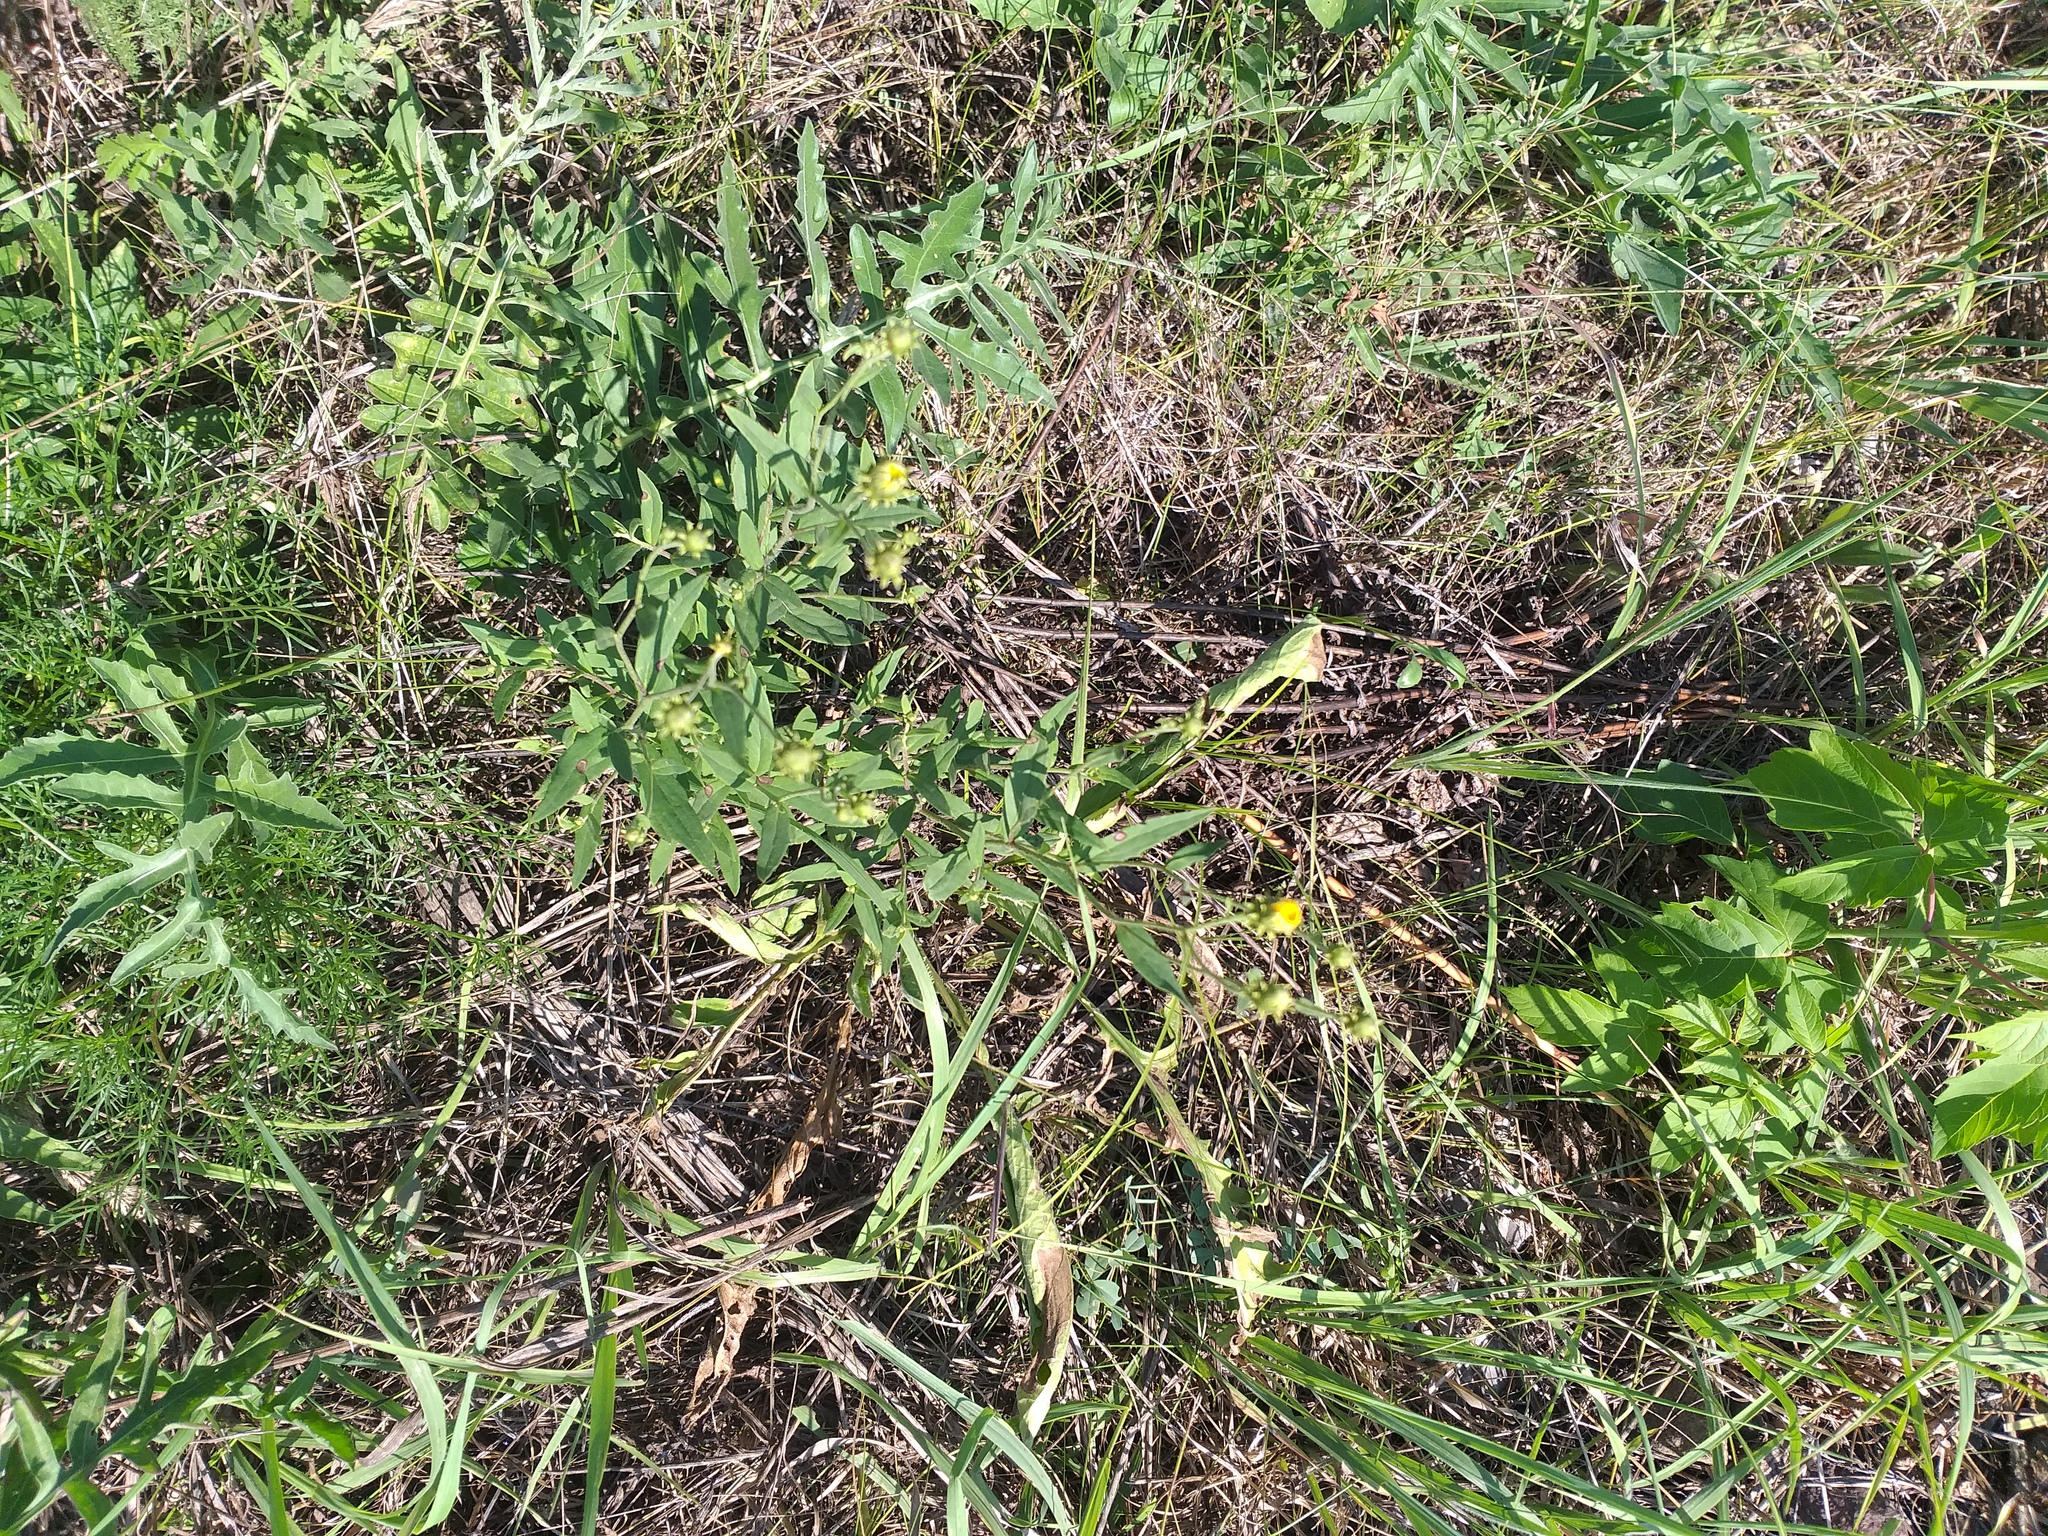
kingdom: Plantae
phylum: Tracheophyta
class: Magnoliopsida
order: Asterales
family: Asteraceae
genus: Hieracium
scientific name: Hieracium umbellatum
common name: Northern hawkweed
